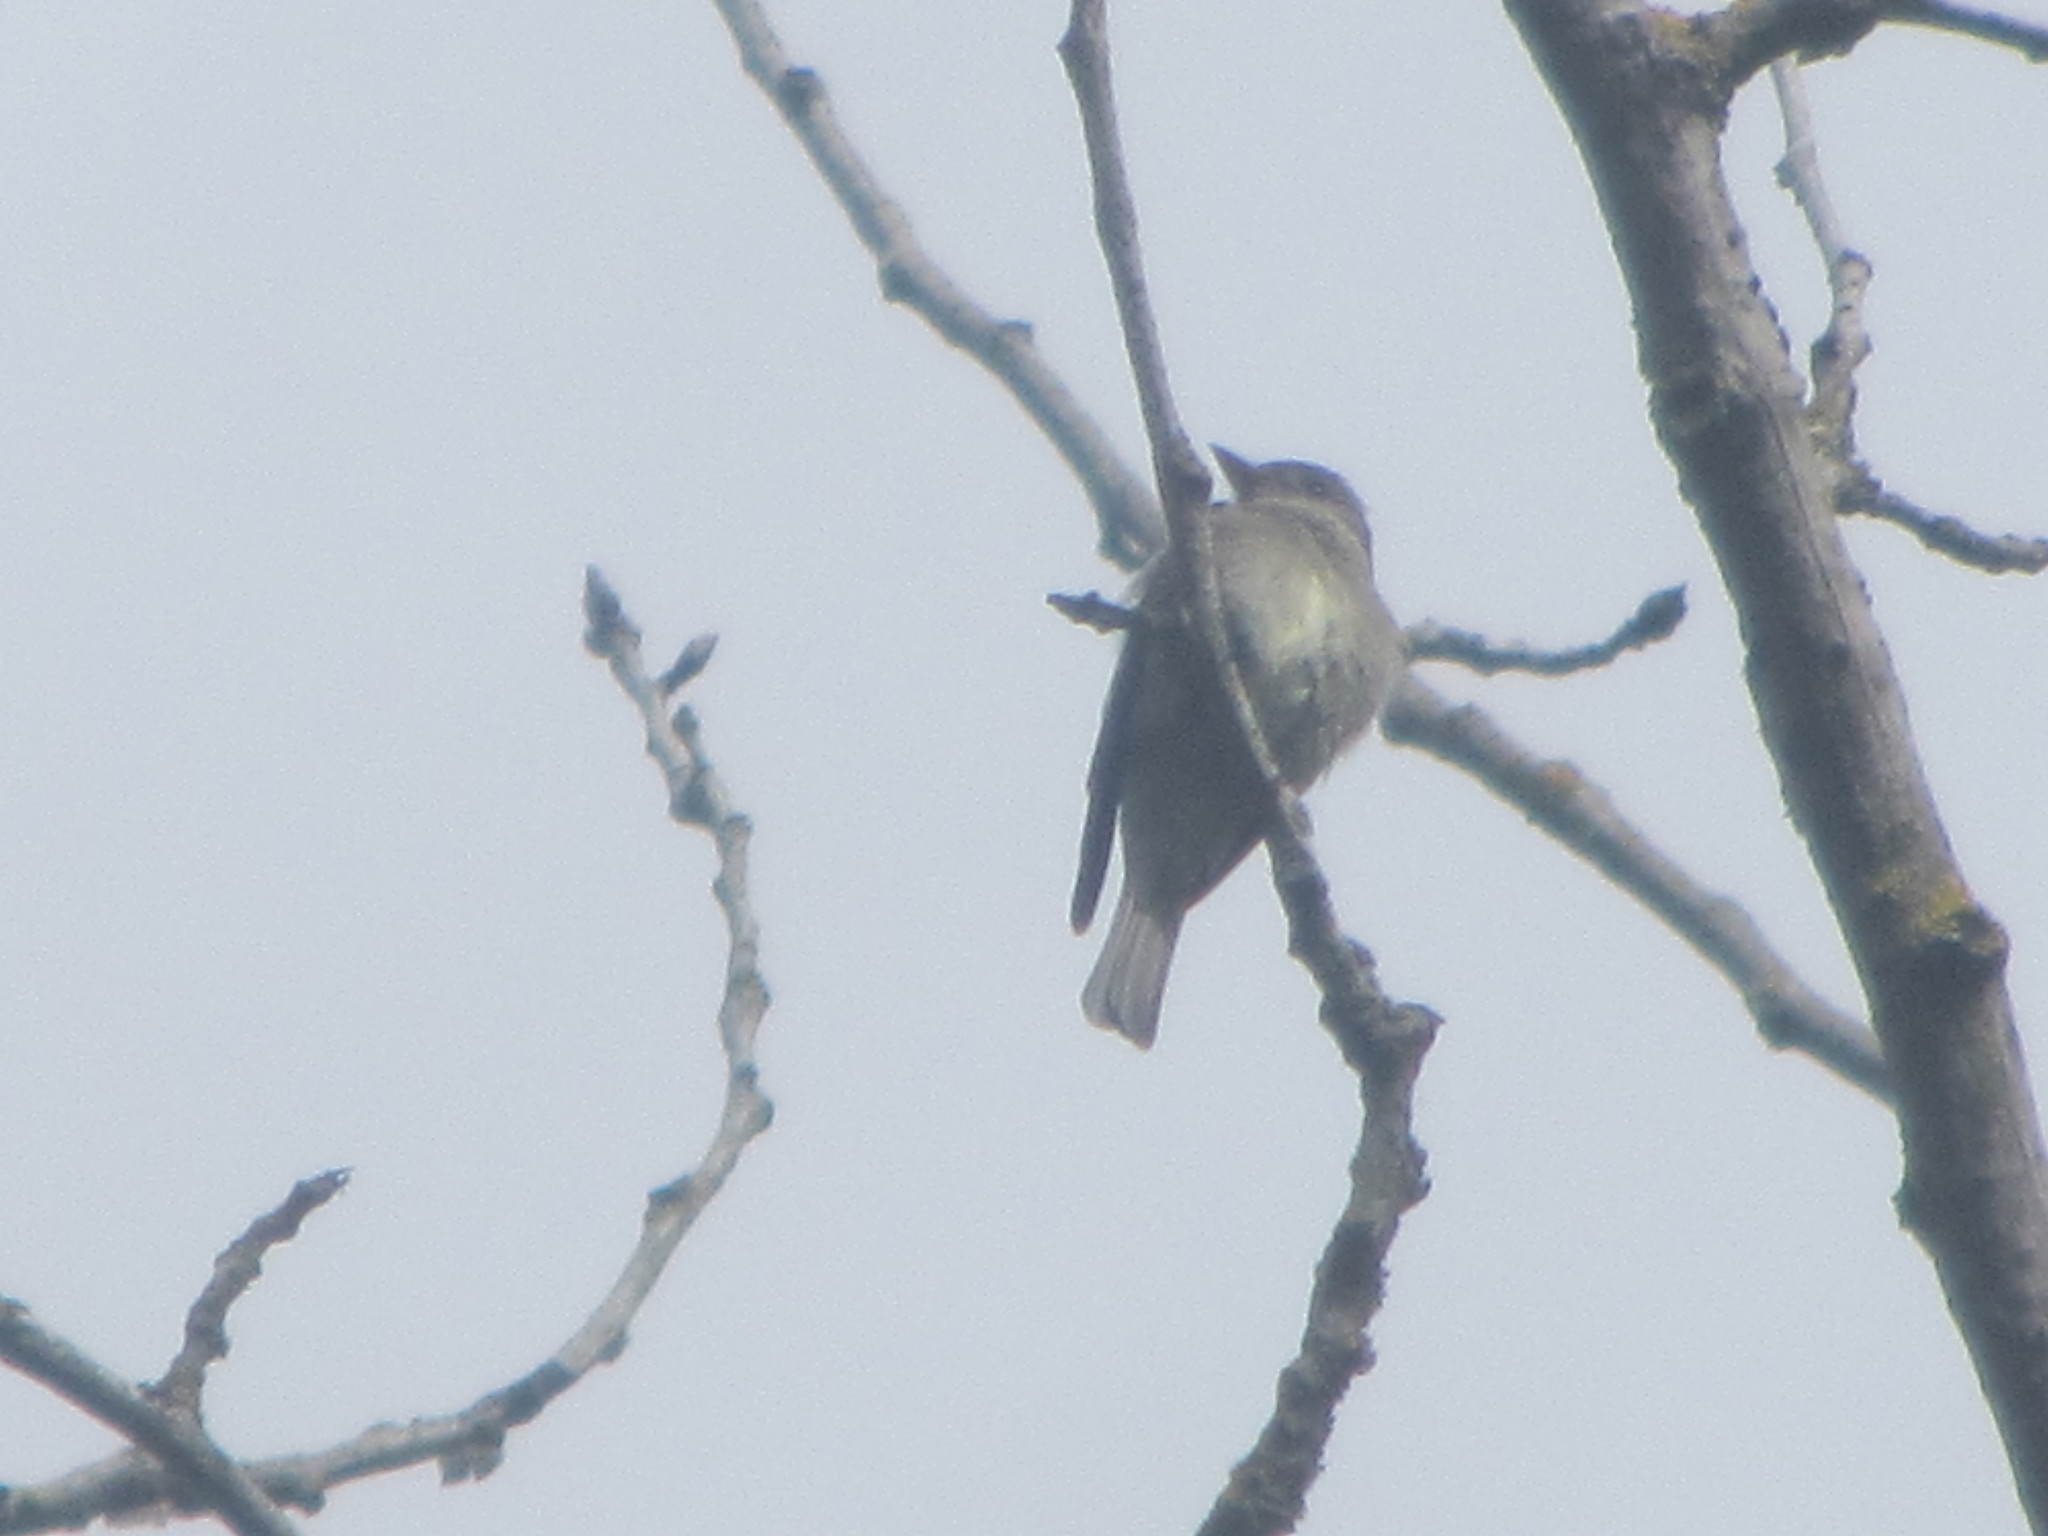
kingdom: Animalia
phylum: Chordata
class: Aves
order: Passeriformes
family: Tyrannidae
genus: Contopus
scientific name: Contopus sordidulus
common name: Western wood-pewee
